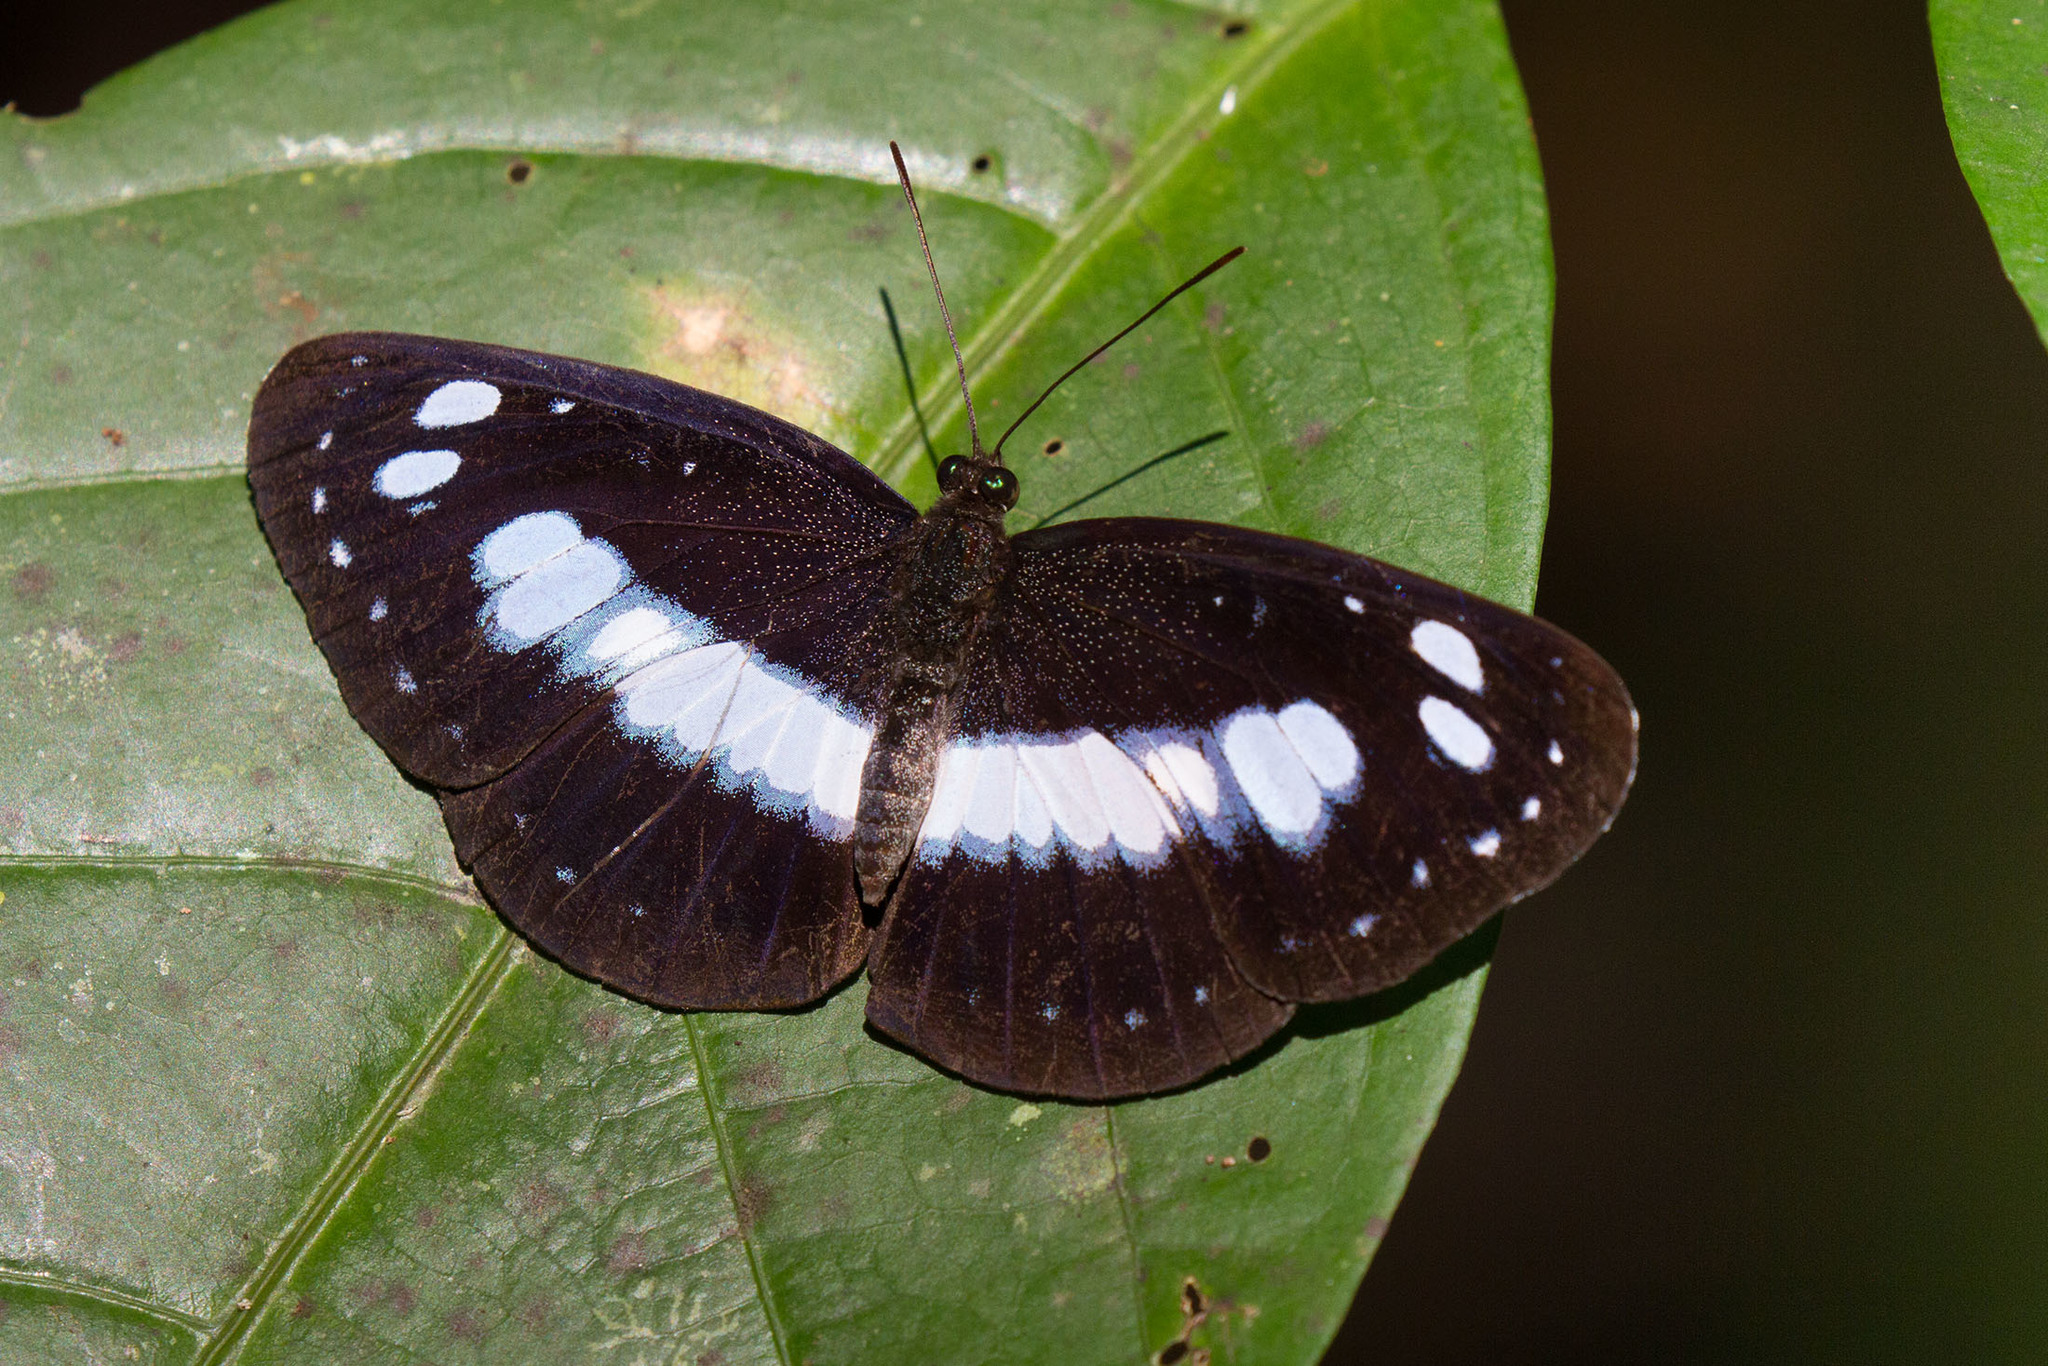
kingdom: Animalia
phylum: Arthropoda
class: Insecta
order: Lepidoptera
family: Nymphalidae
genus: Pantoporia
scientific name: Pantoporia venilia
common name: Cape york aeroplane
